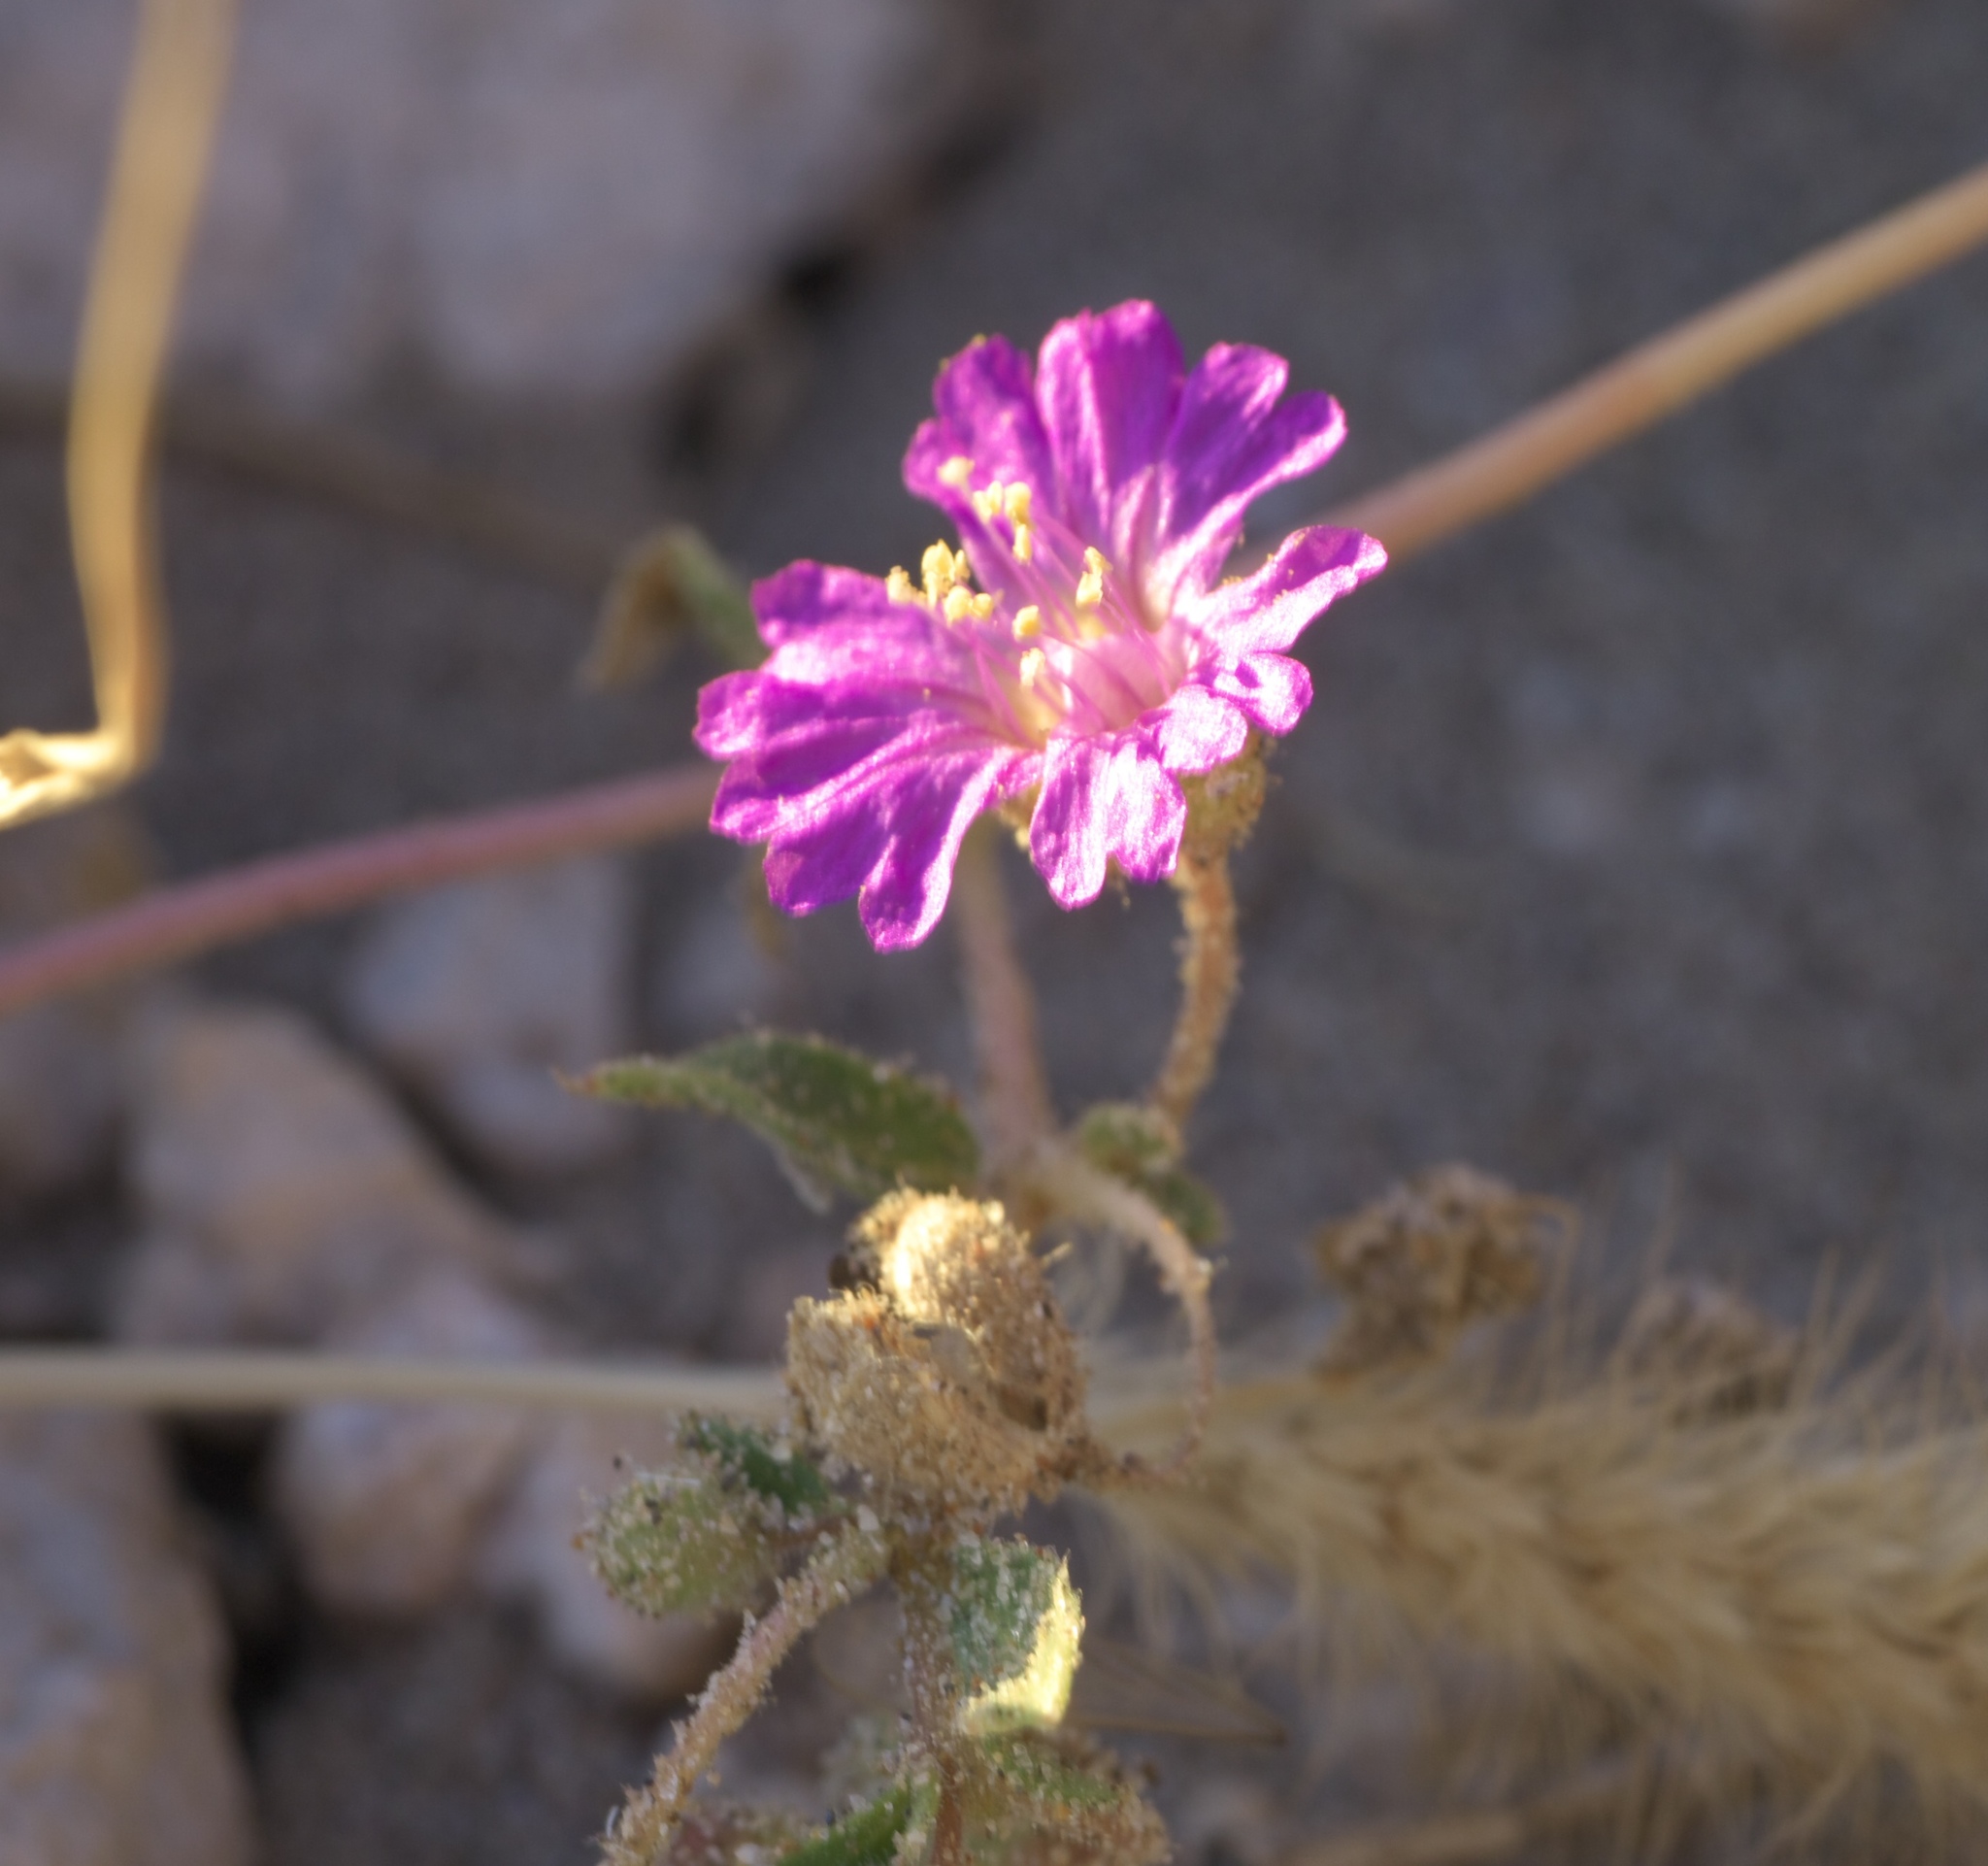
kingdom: Plantae
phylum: Tracheophyta
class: Magnoliopsida
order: Caryophyllales
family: Nyctaginaceae
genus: Allionia
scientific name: Allionia incarnata
